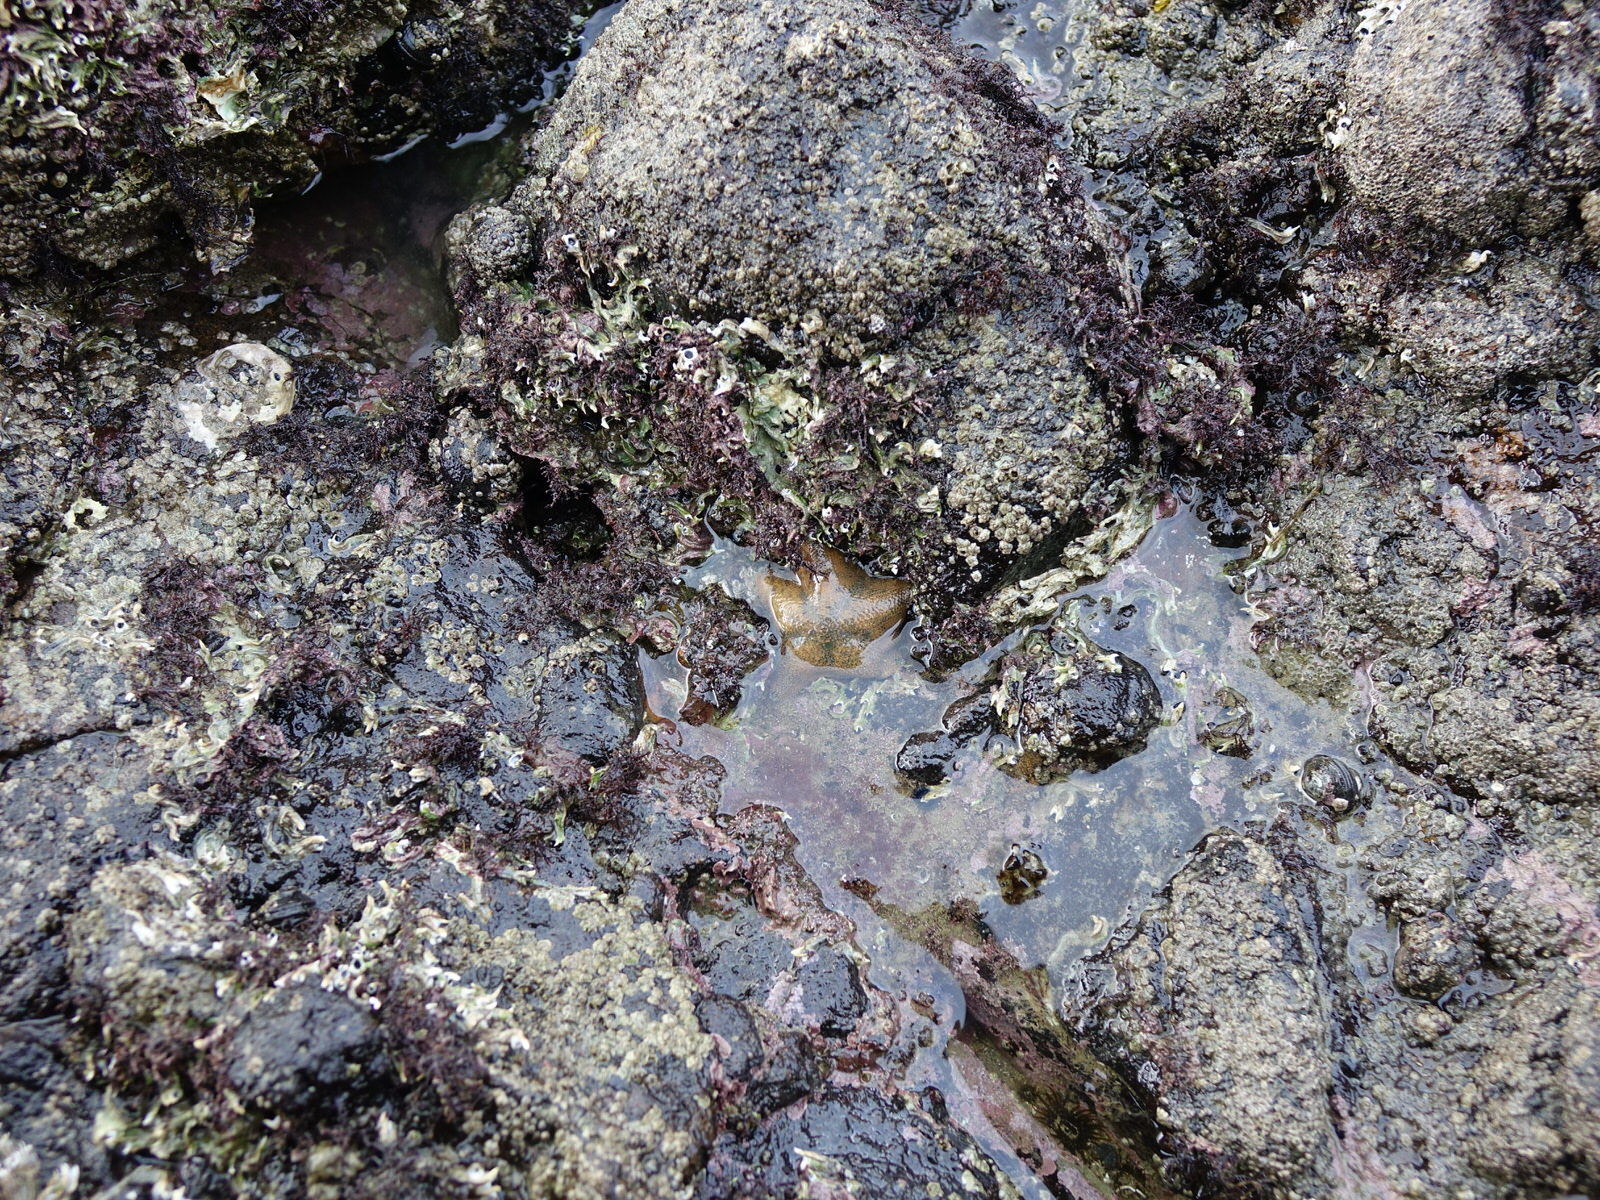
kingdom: Animalia
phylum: Echinodermata
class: Asteroidea
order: Valvatida
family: Asterinidae
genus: Patiriella
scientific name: Patiriella regularis
